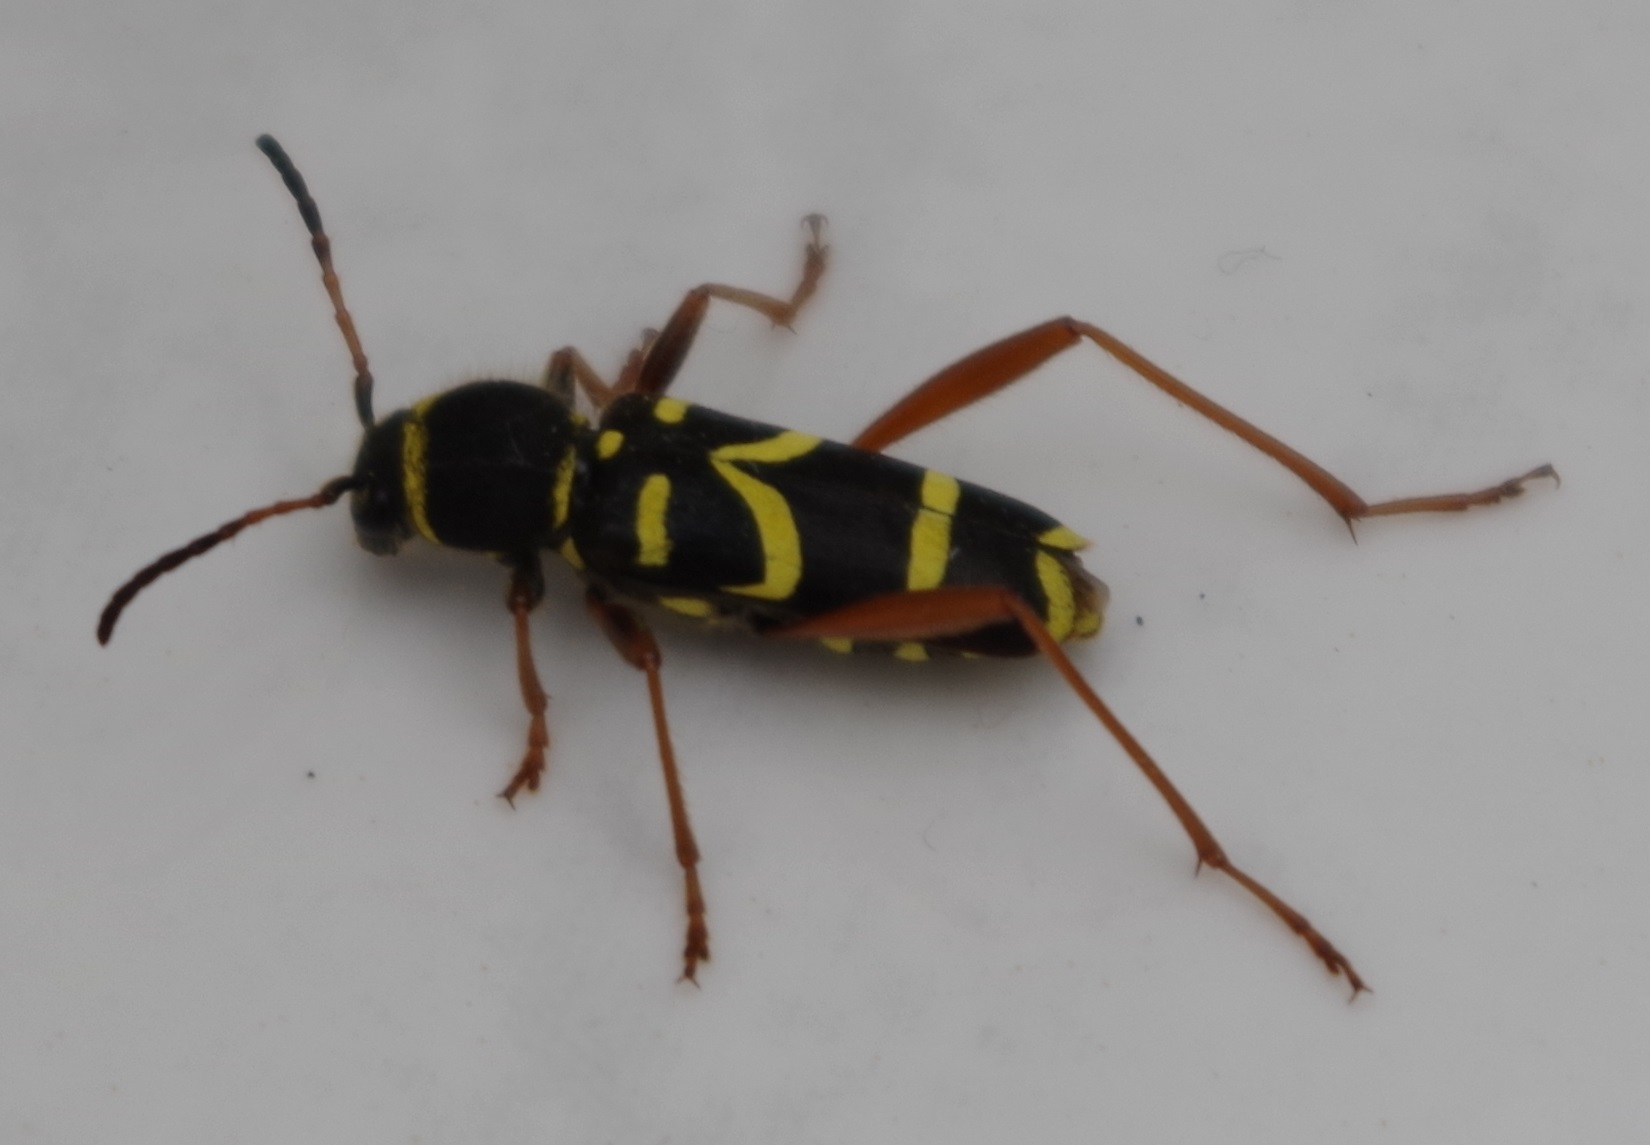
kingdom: Animalia
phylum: Arthropoda
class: Insecta
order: Coleoptera
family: Cerambycidae
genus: Clytus
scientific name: Clytus arietis
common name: Wasp beetle
